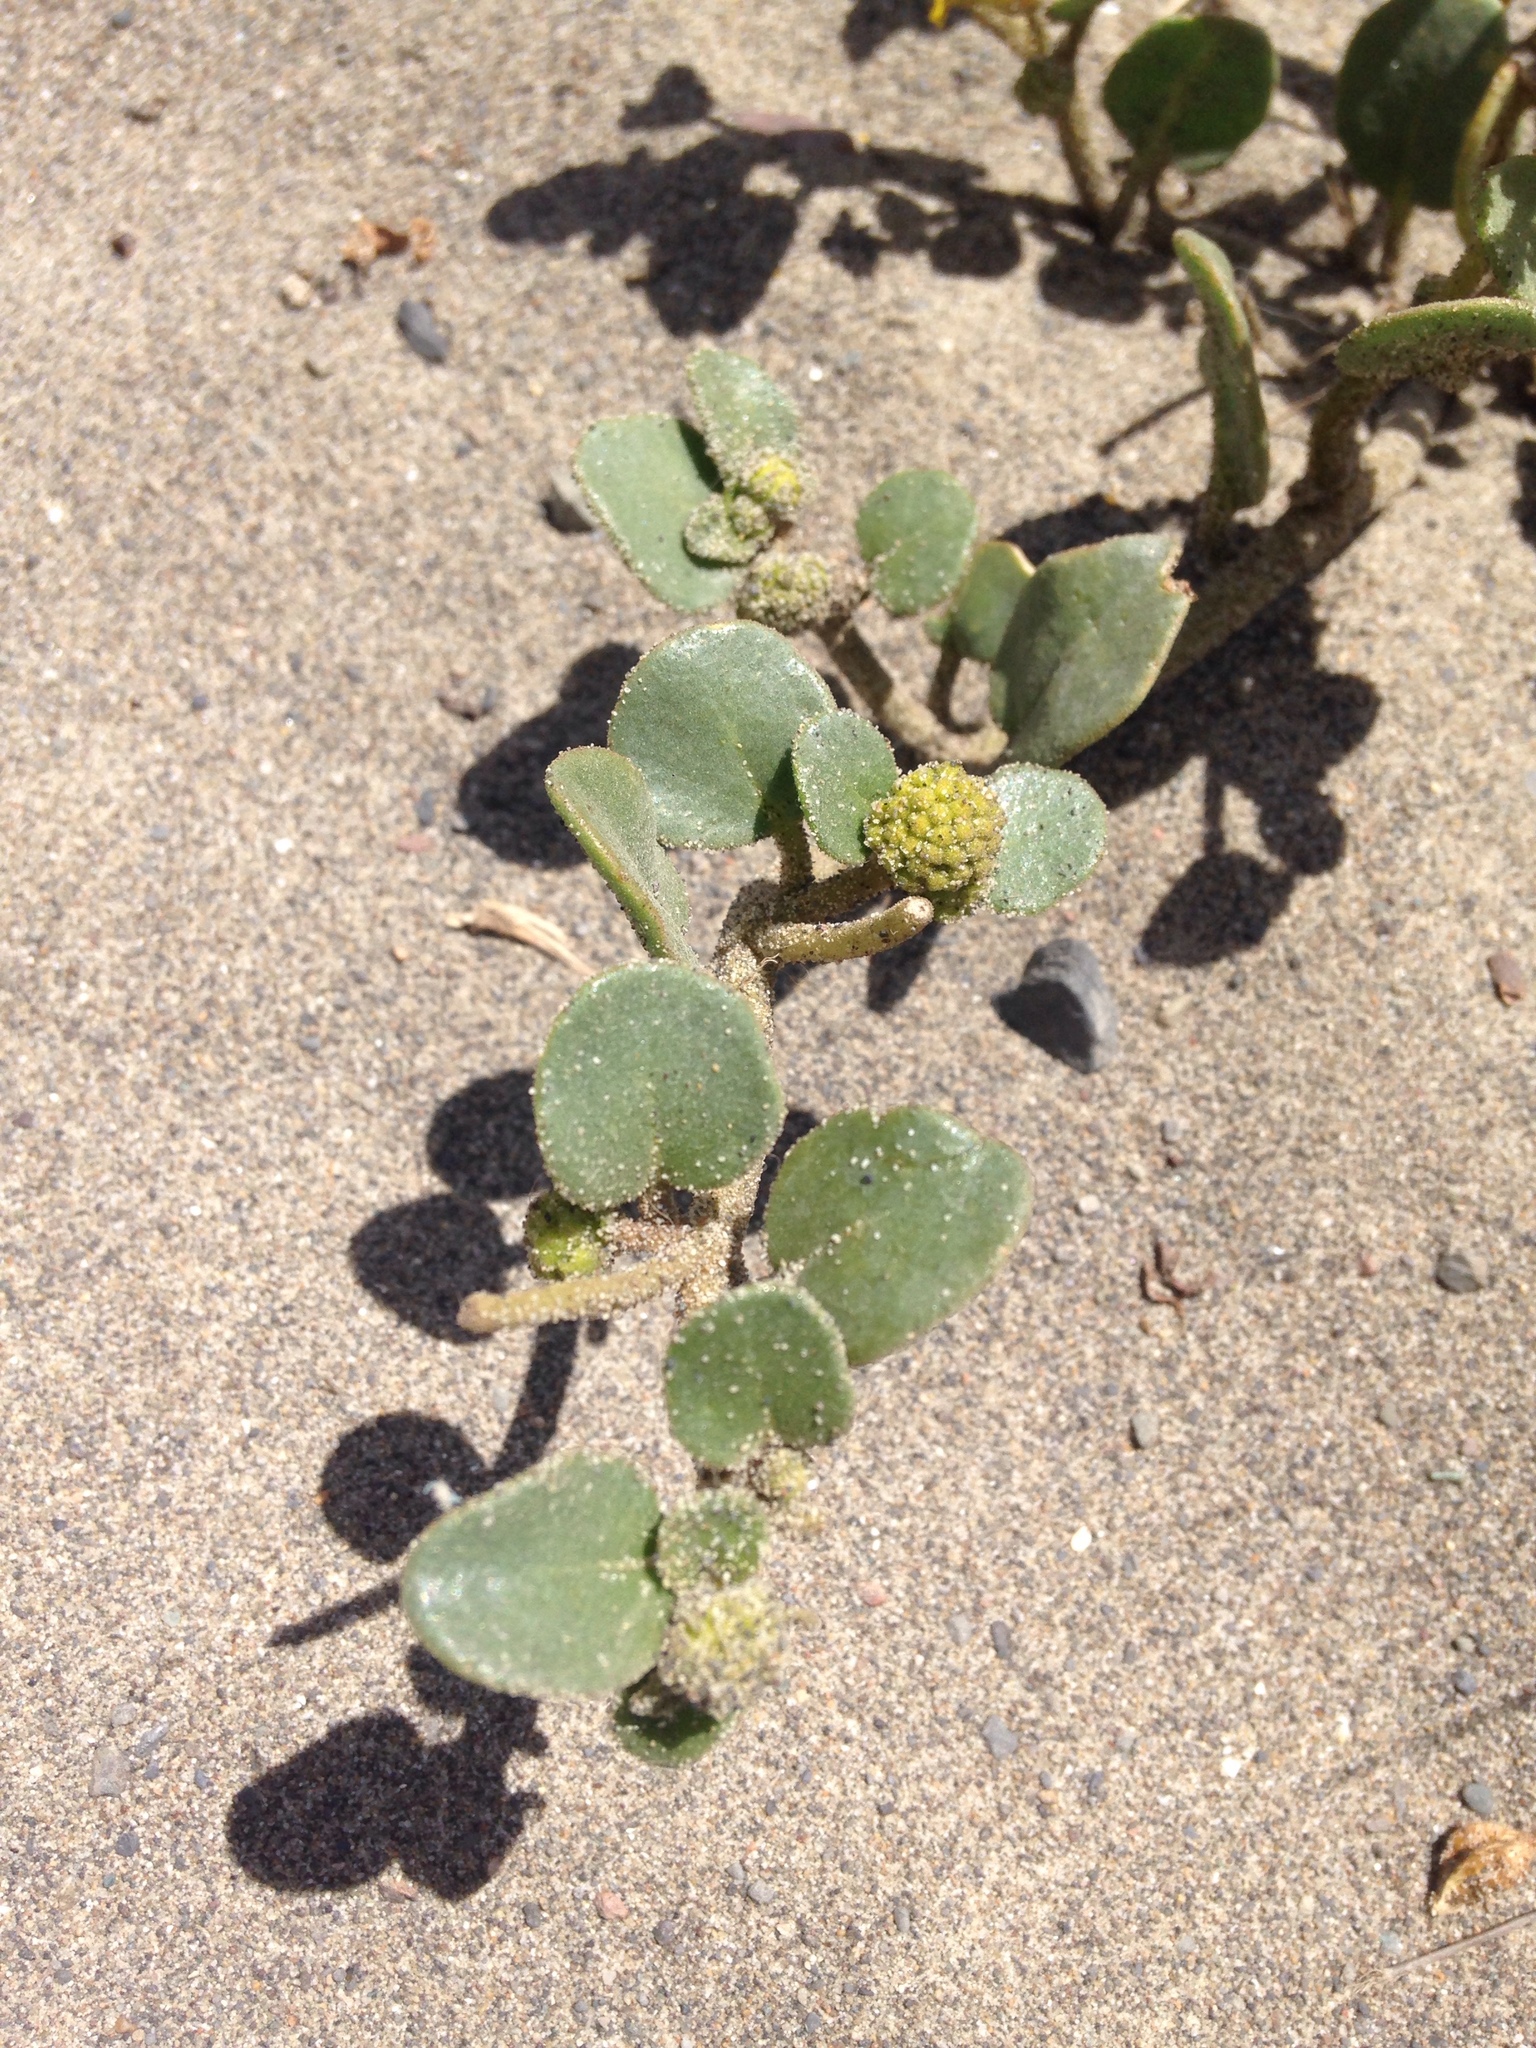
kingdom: Plantae
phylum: Tracheophyta
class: Magnoliopsida
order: Caryophyllales
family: Nyctaginaceae
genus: Abronia
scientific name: Abronia latifolia
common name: Yellow sand-verbena
